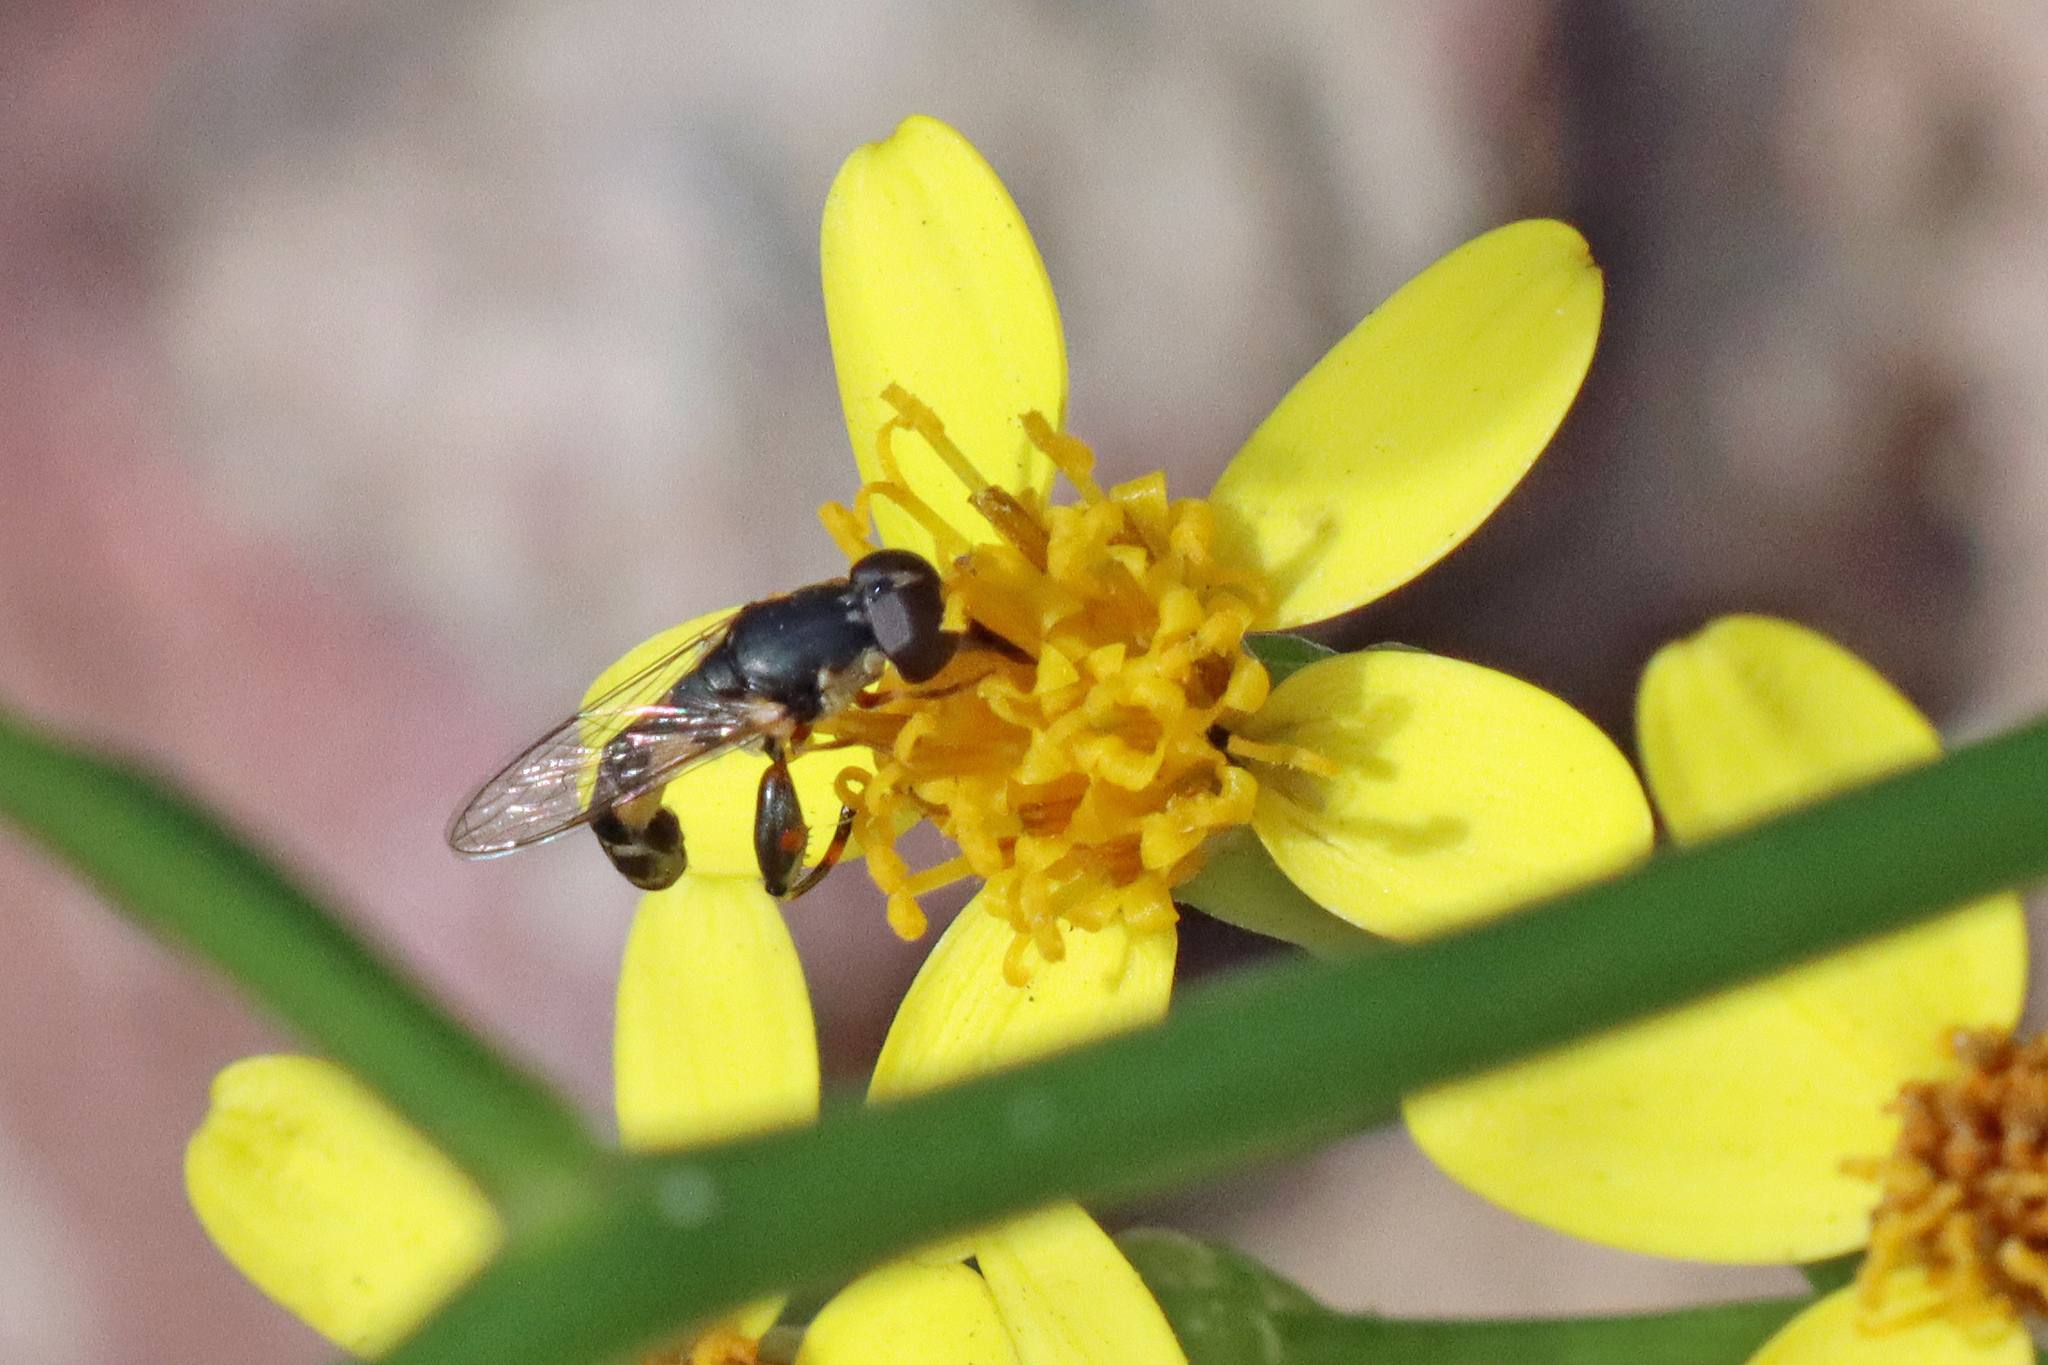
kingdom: Animalia
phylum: Arthropoda
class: Insecta
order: Diptera
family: Syrphidae
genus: Syritta
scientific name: Syritta pipiens
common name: Hover fly
